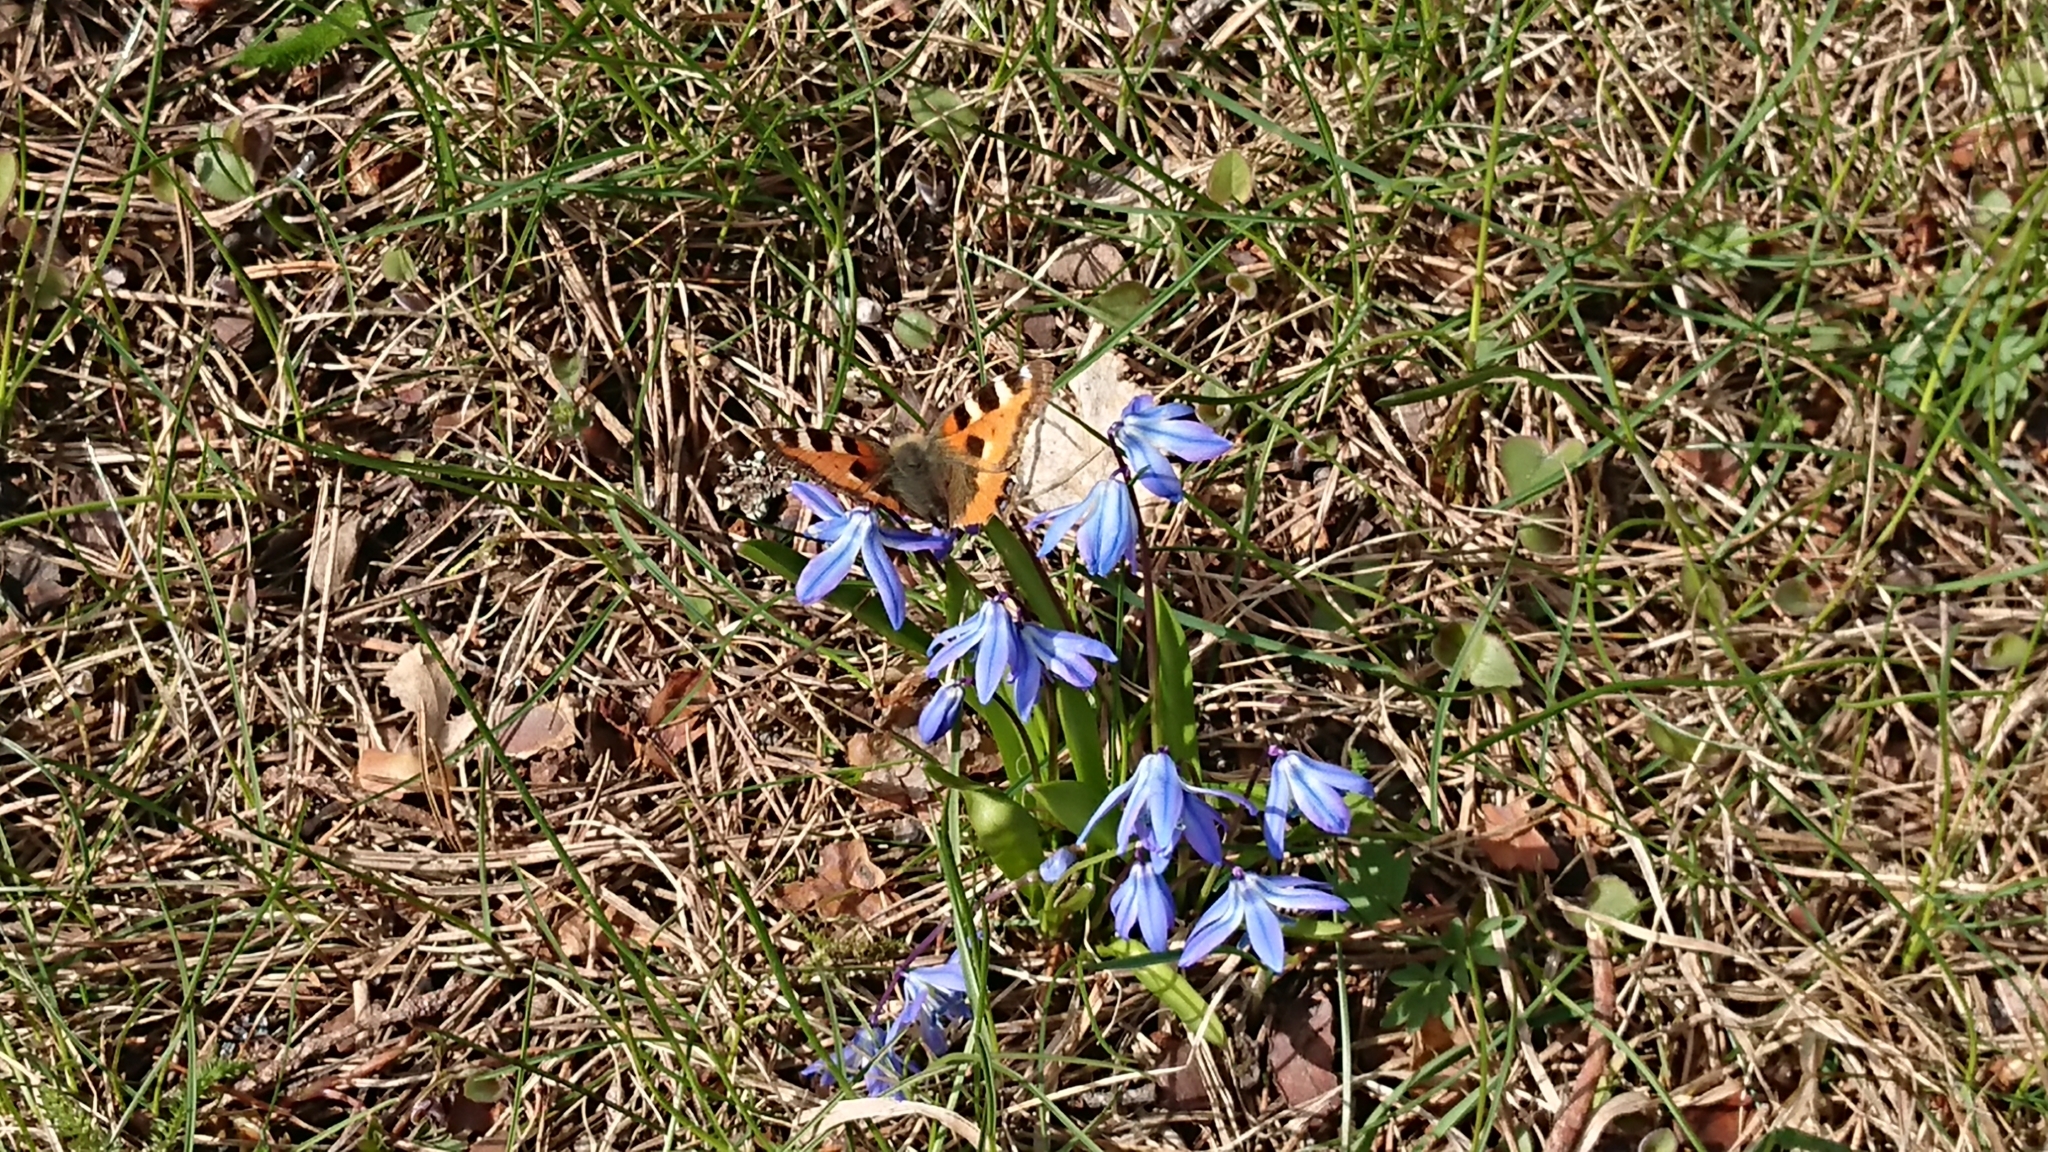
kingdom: Animalia
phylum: Arthropoda
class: Insecta
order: Lepidoptera
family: Nymphalidae
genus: Aglais
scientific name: Aglais urticae
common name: Small tortoiseshell
